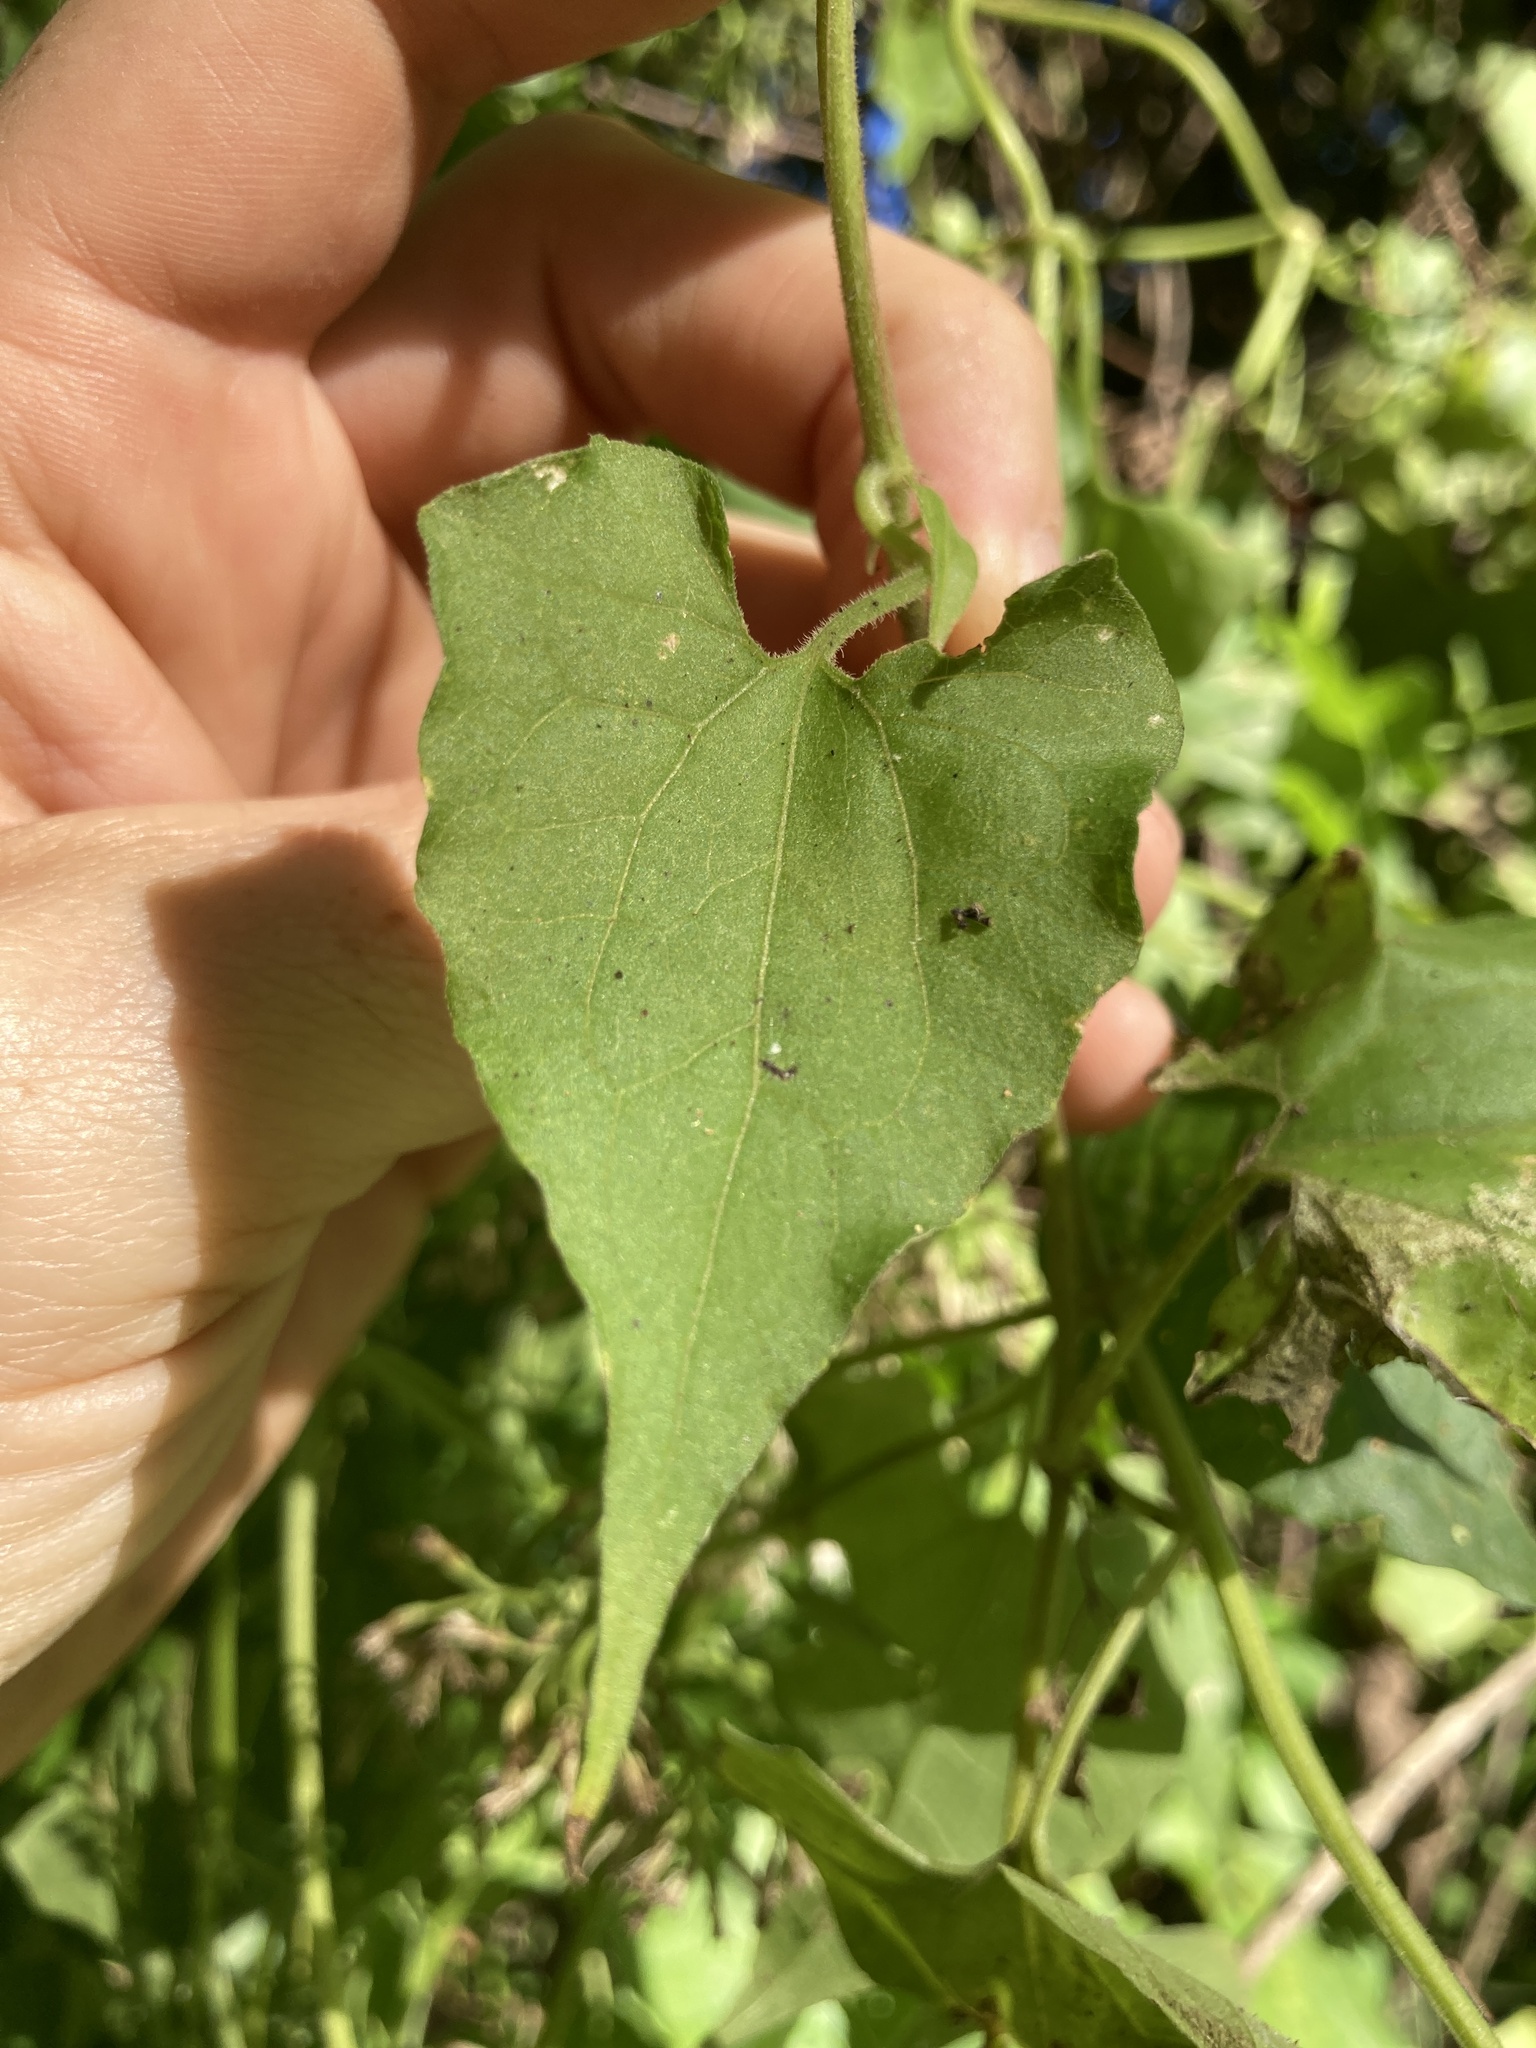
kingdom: Plantae
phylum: Tracheophyta
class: Magnoliopsida
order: Asterales
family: Asteraceae
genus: Mikania
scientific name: Mikania scandens
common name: Climbing hempvine
